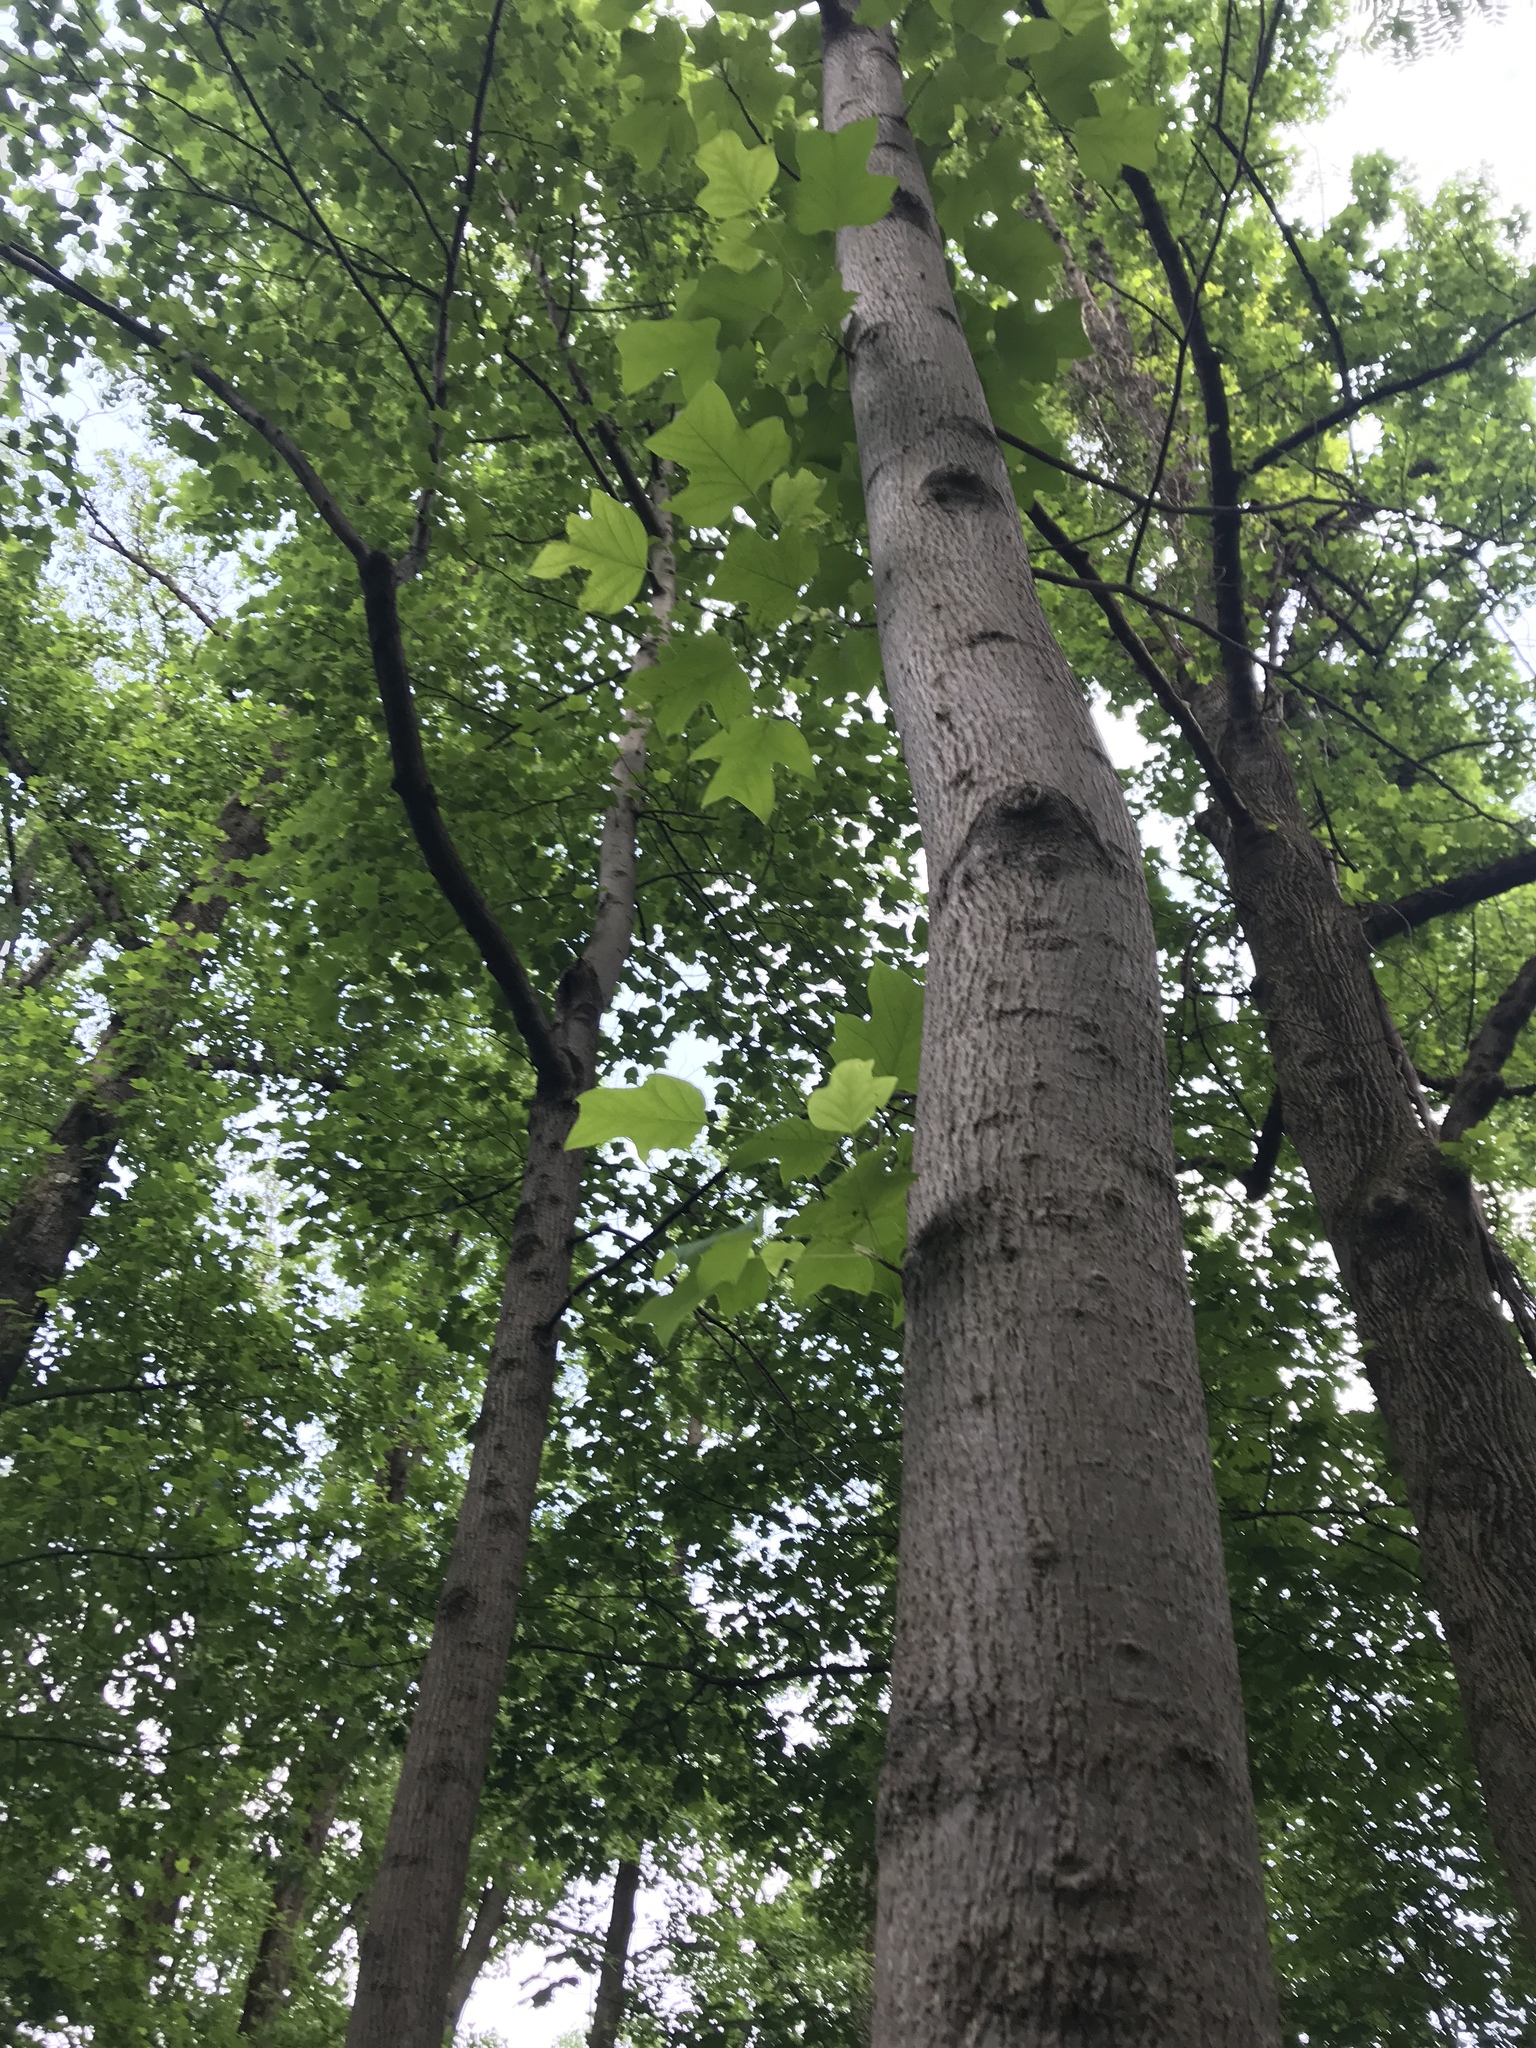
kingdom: Plantae
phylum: Tracheophyta
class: Magnoliopsida
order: Magnoliales
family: Magnoliaceae
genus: Liriodendron
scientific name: Liriodendron tulipifera
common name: Tulip tree
